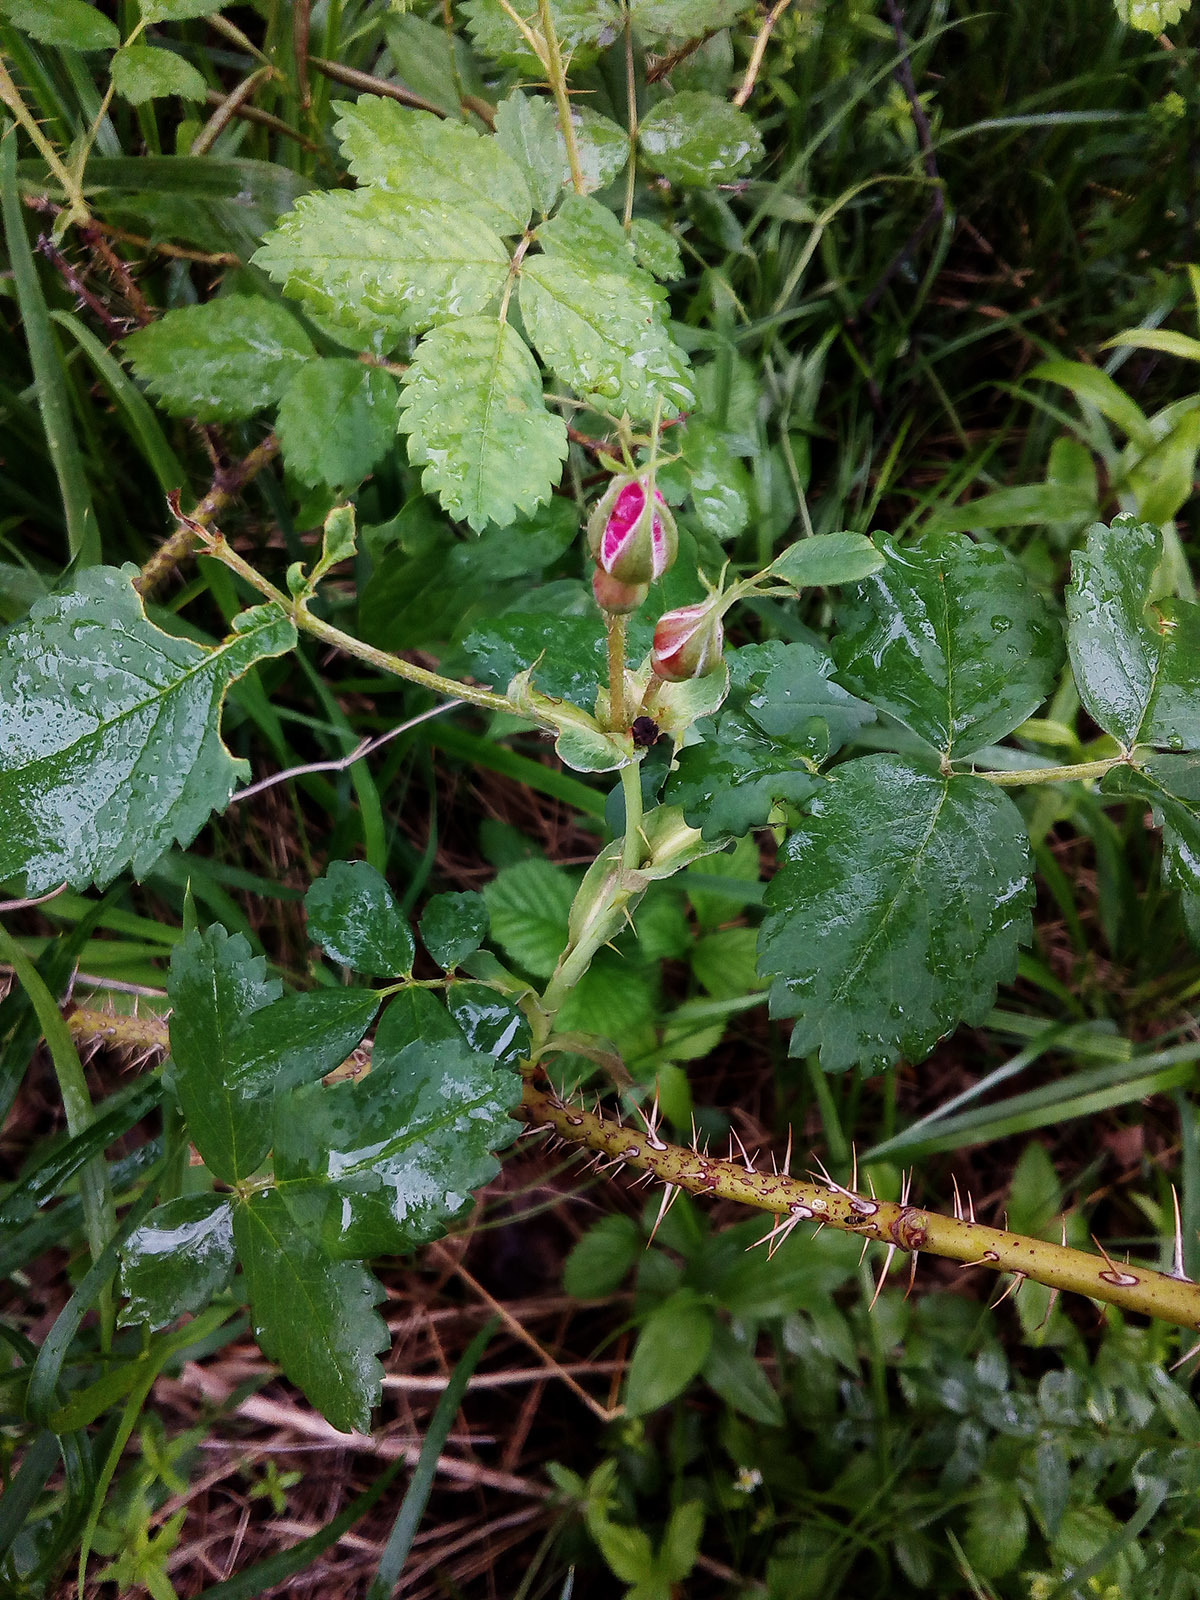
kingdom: Plantae
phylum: Tracheophyta
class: Magnoliopsida
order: Rosales
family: Rosaceae
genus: Rosa
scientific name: Rosa acicularis
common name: Prickly rose
